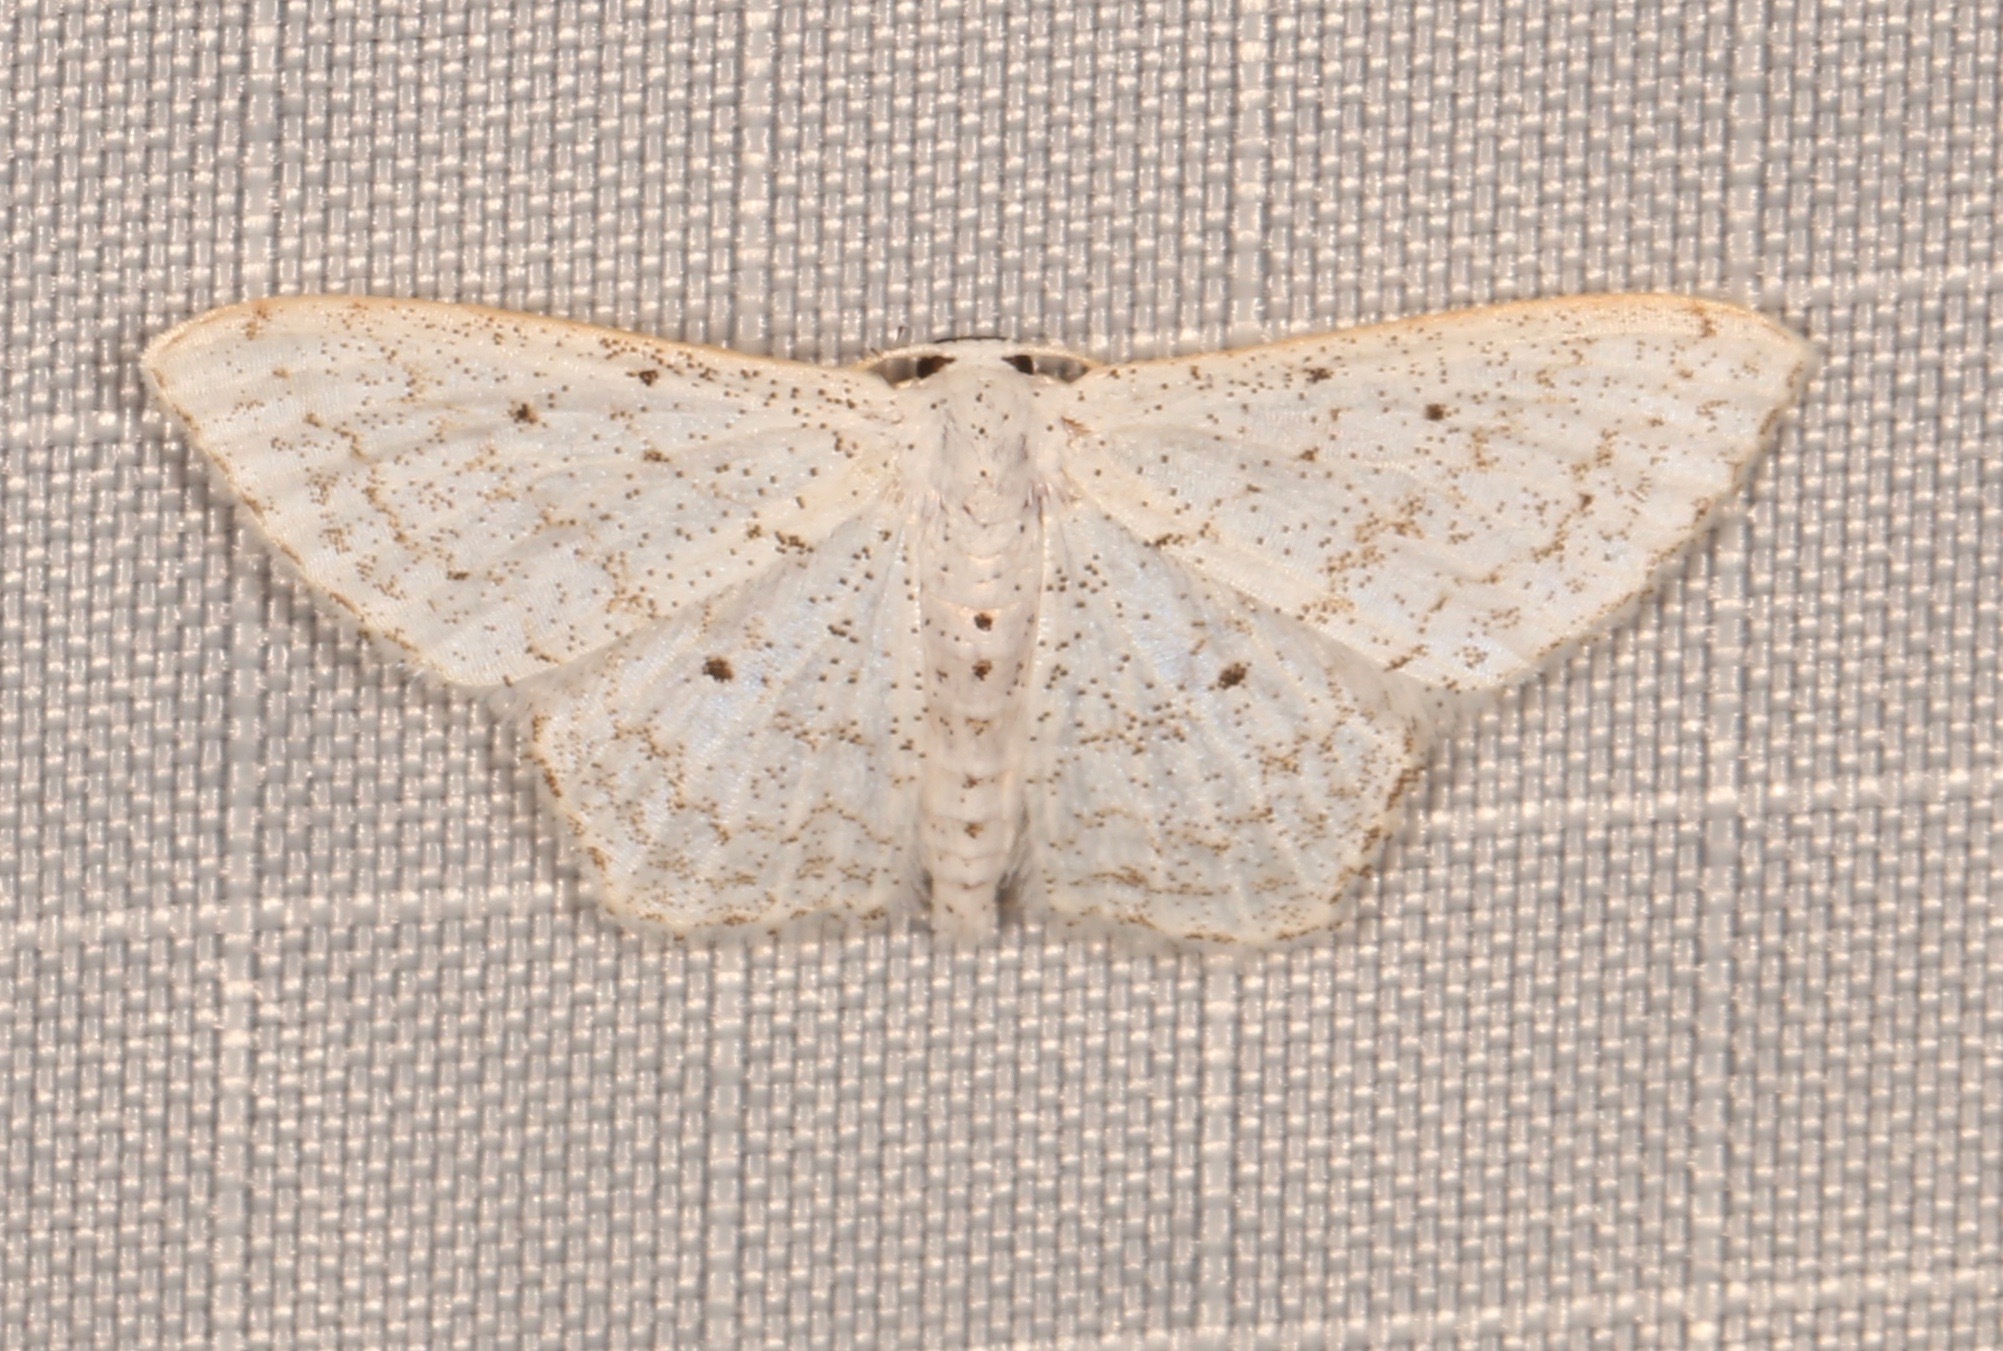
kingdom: Animalia
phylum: Arthropoda
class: Insecta
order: Lepidoptera
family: Geometridae
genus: Idaea
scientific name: Idaea tacturata
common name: Dot-lined wave
